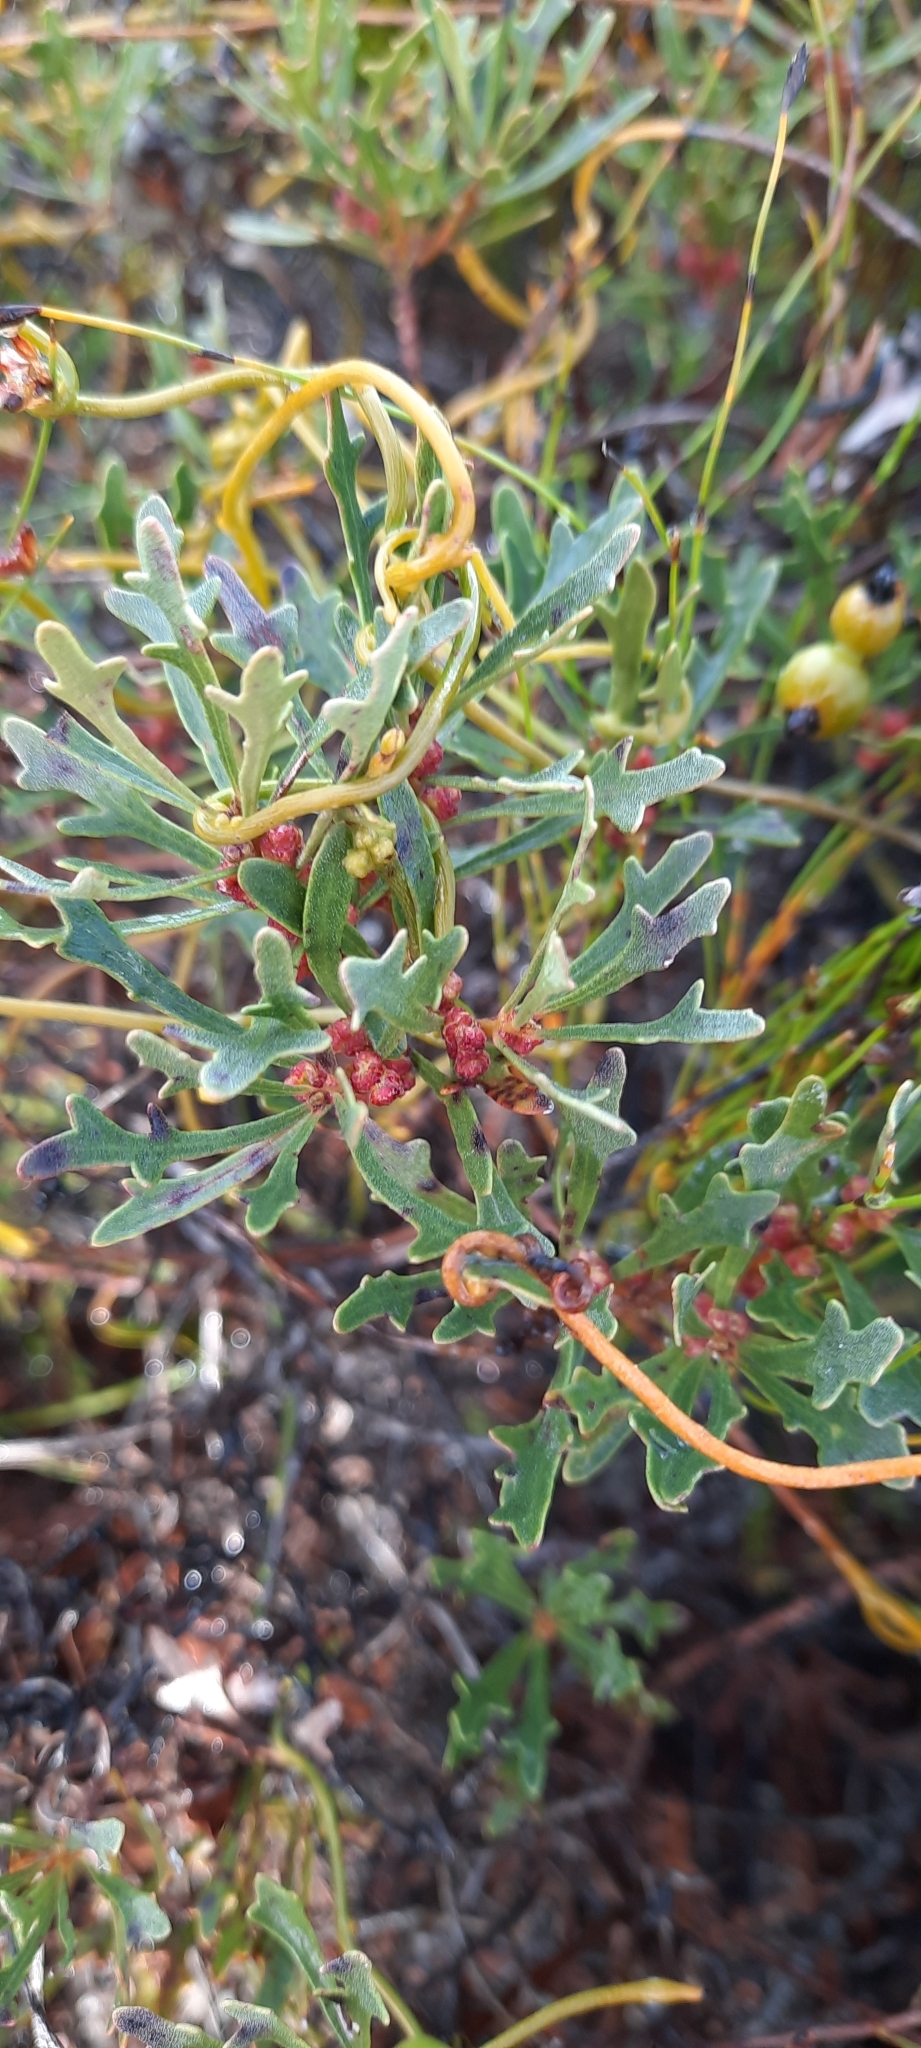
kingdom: Plantae
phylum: Tracheophyta
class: Magnoliopsida
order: Fagales
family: Myricaceae
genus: Morella
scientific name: Morella quercifolia
